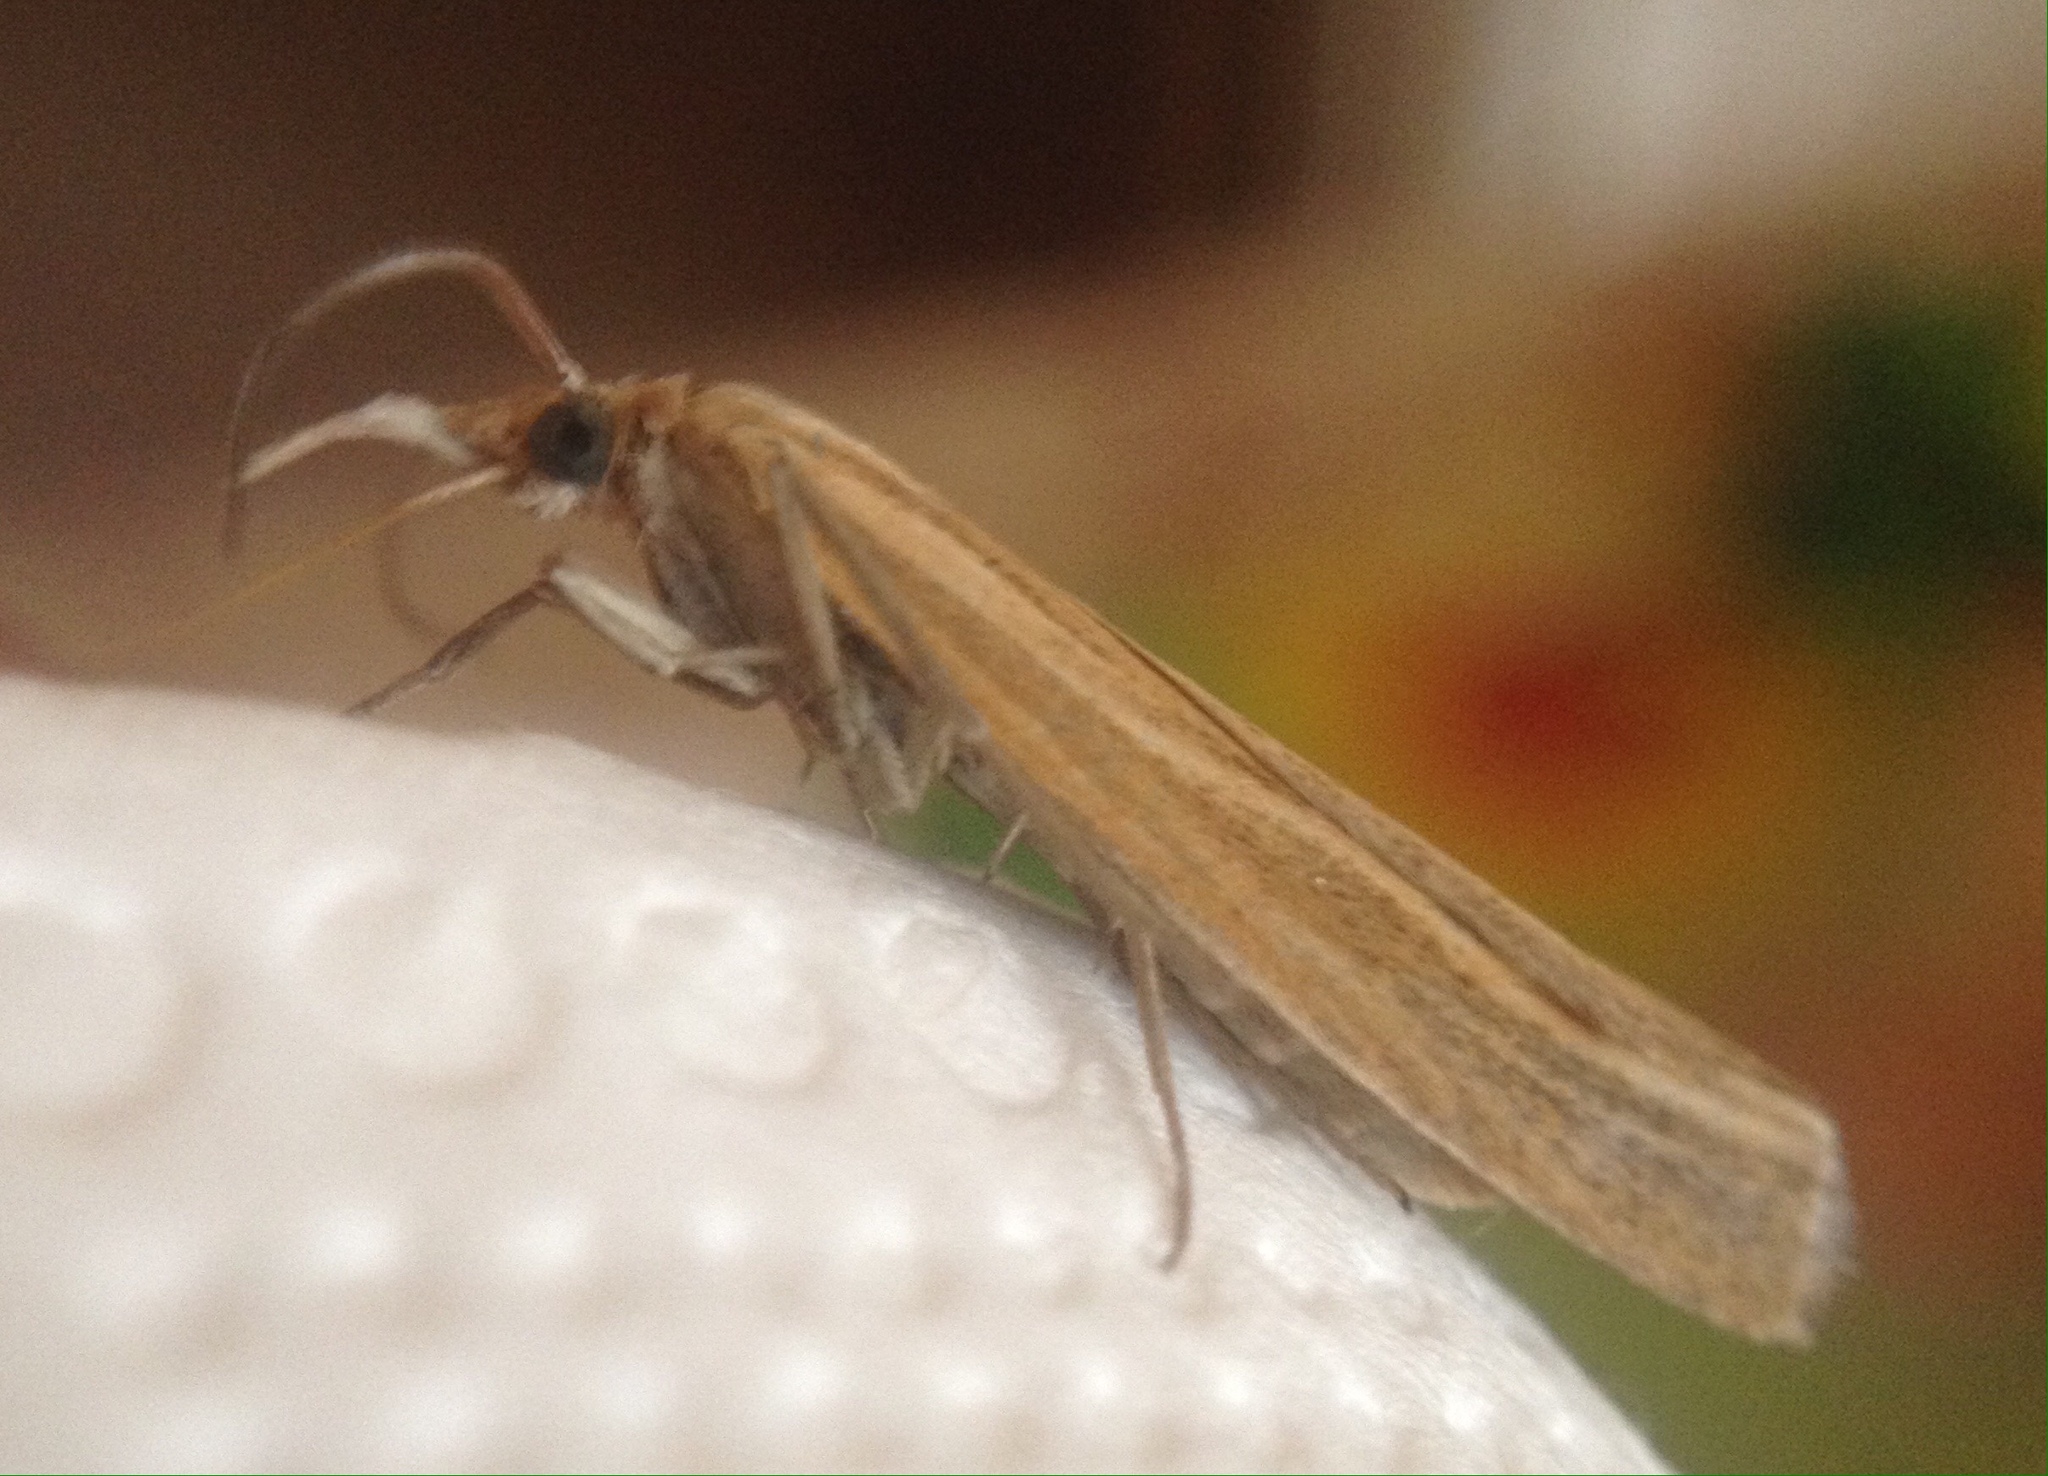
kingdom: Animalia
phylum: Arthropoda
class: Insecta
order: Lepidoptera
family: Crambidae
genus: Agriphila
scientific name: Agriphila tristellus
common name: Common grass-veneer
